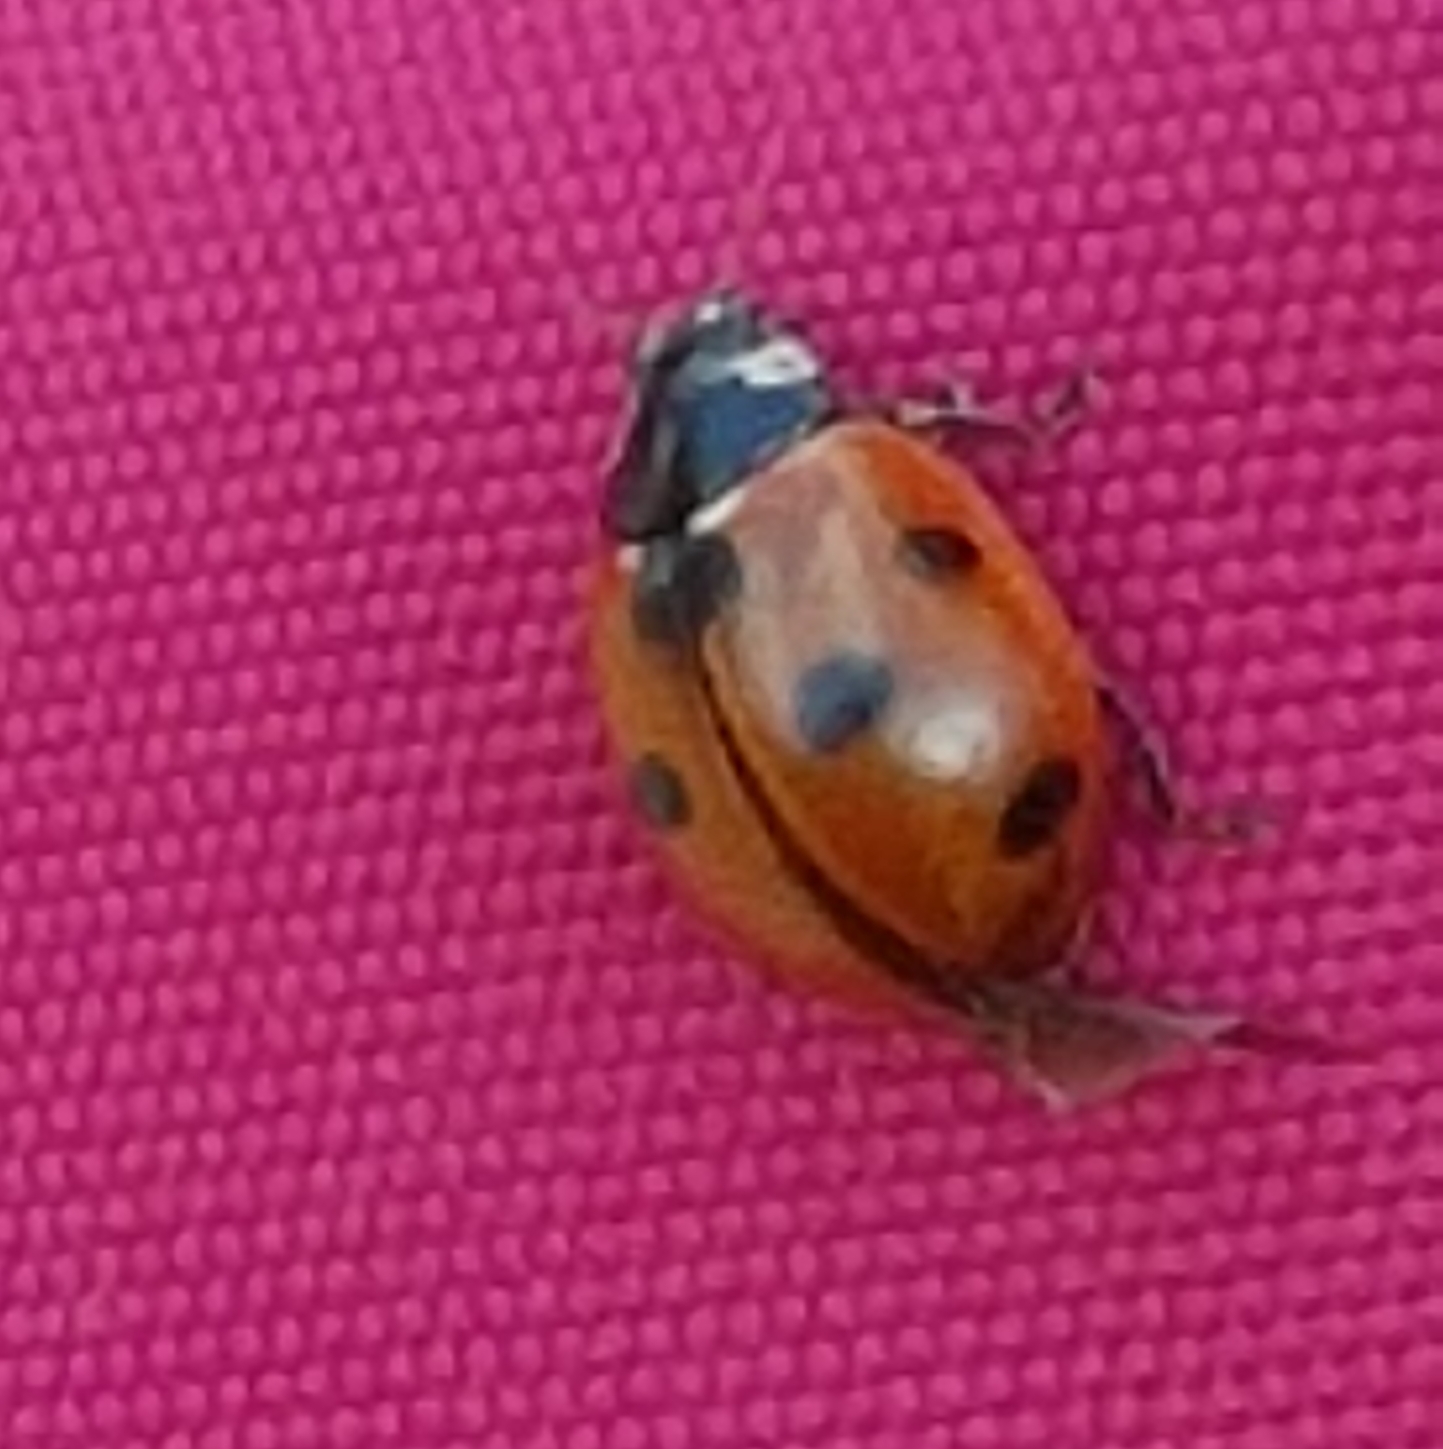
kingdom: Animalia
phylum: Arthropoda
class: Insecta
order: Coleoptera
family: Coccinellidae
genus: Coccinella
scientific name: Coccinella septempunctata
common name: Sevenspotted lady beetle
